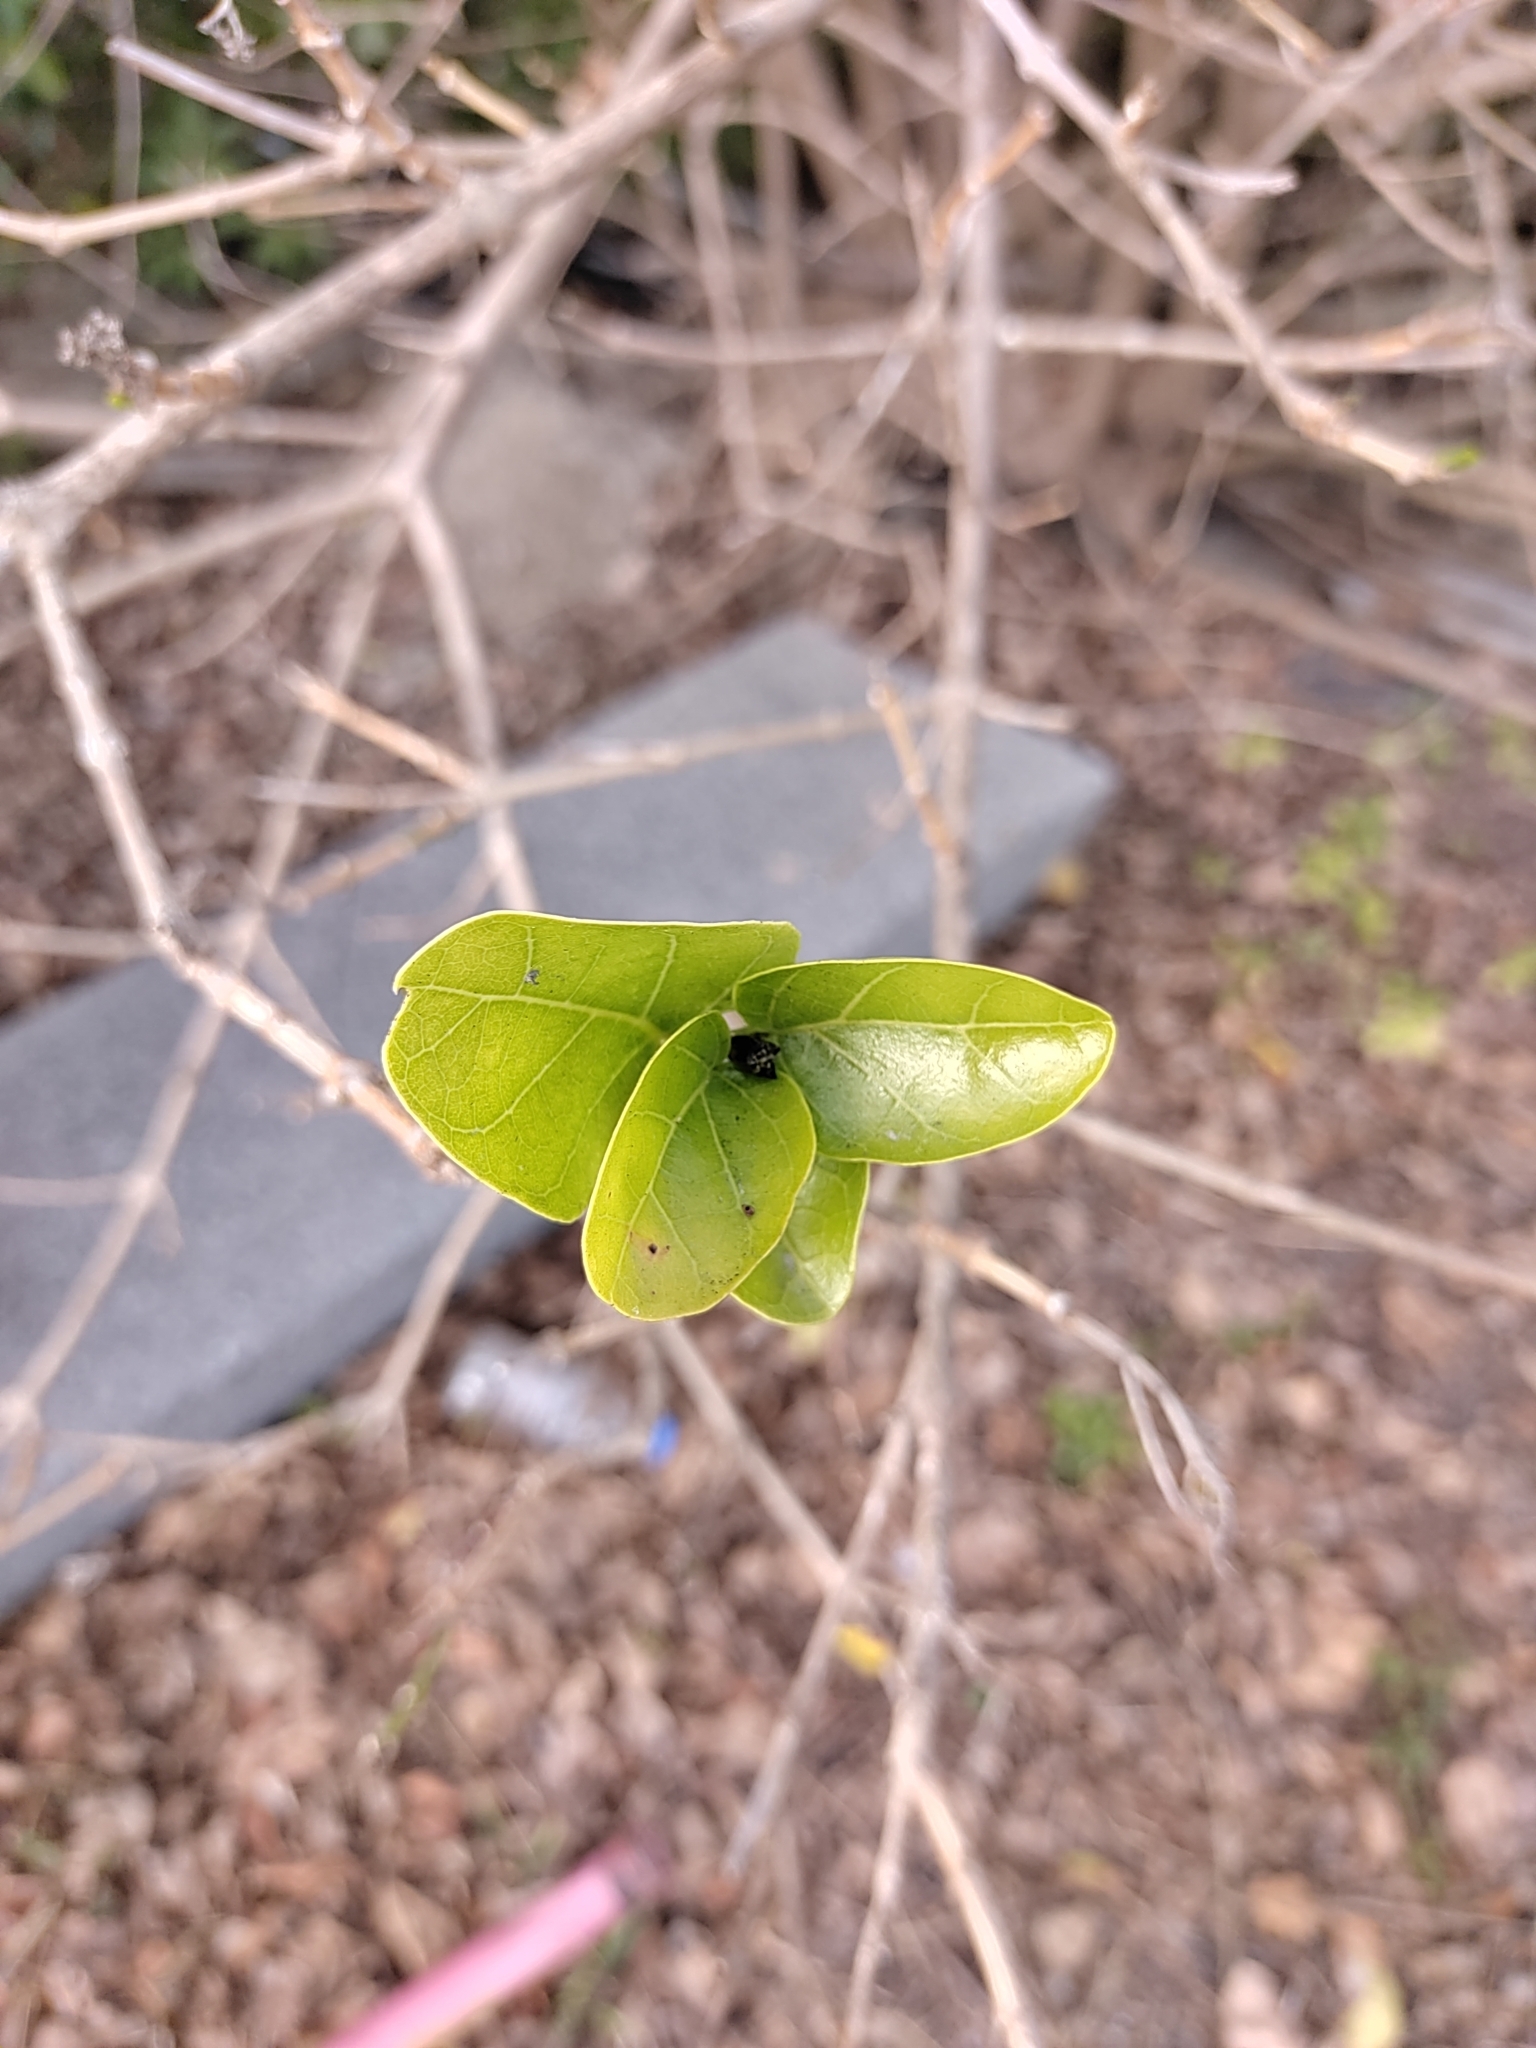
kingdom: Plantae
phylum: Tracheophyta
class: Magnoliopsida
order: Lamiales
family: Lamiaceae
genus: Premna
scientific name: Premna serratifolia
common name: Bastard guelder
